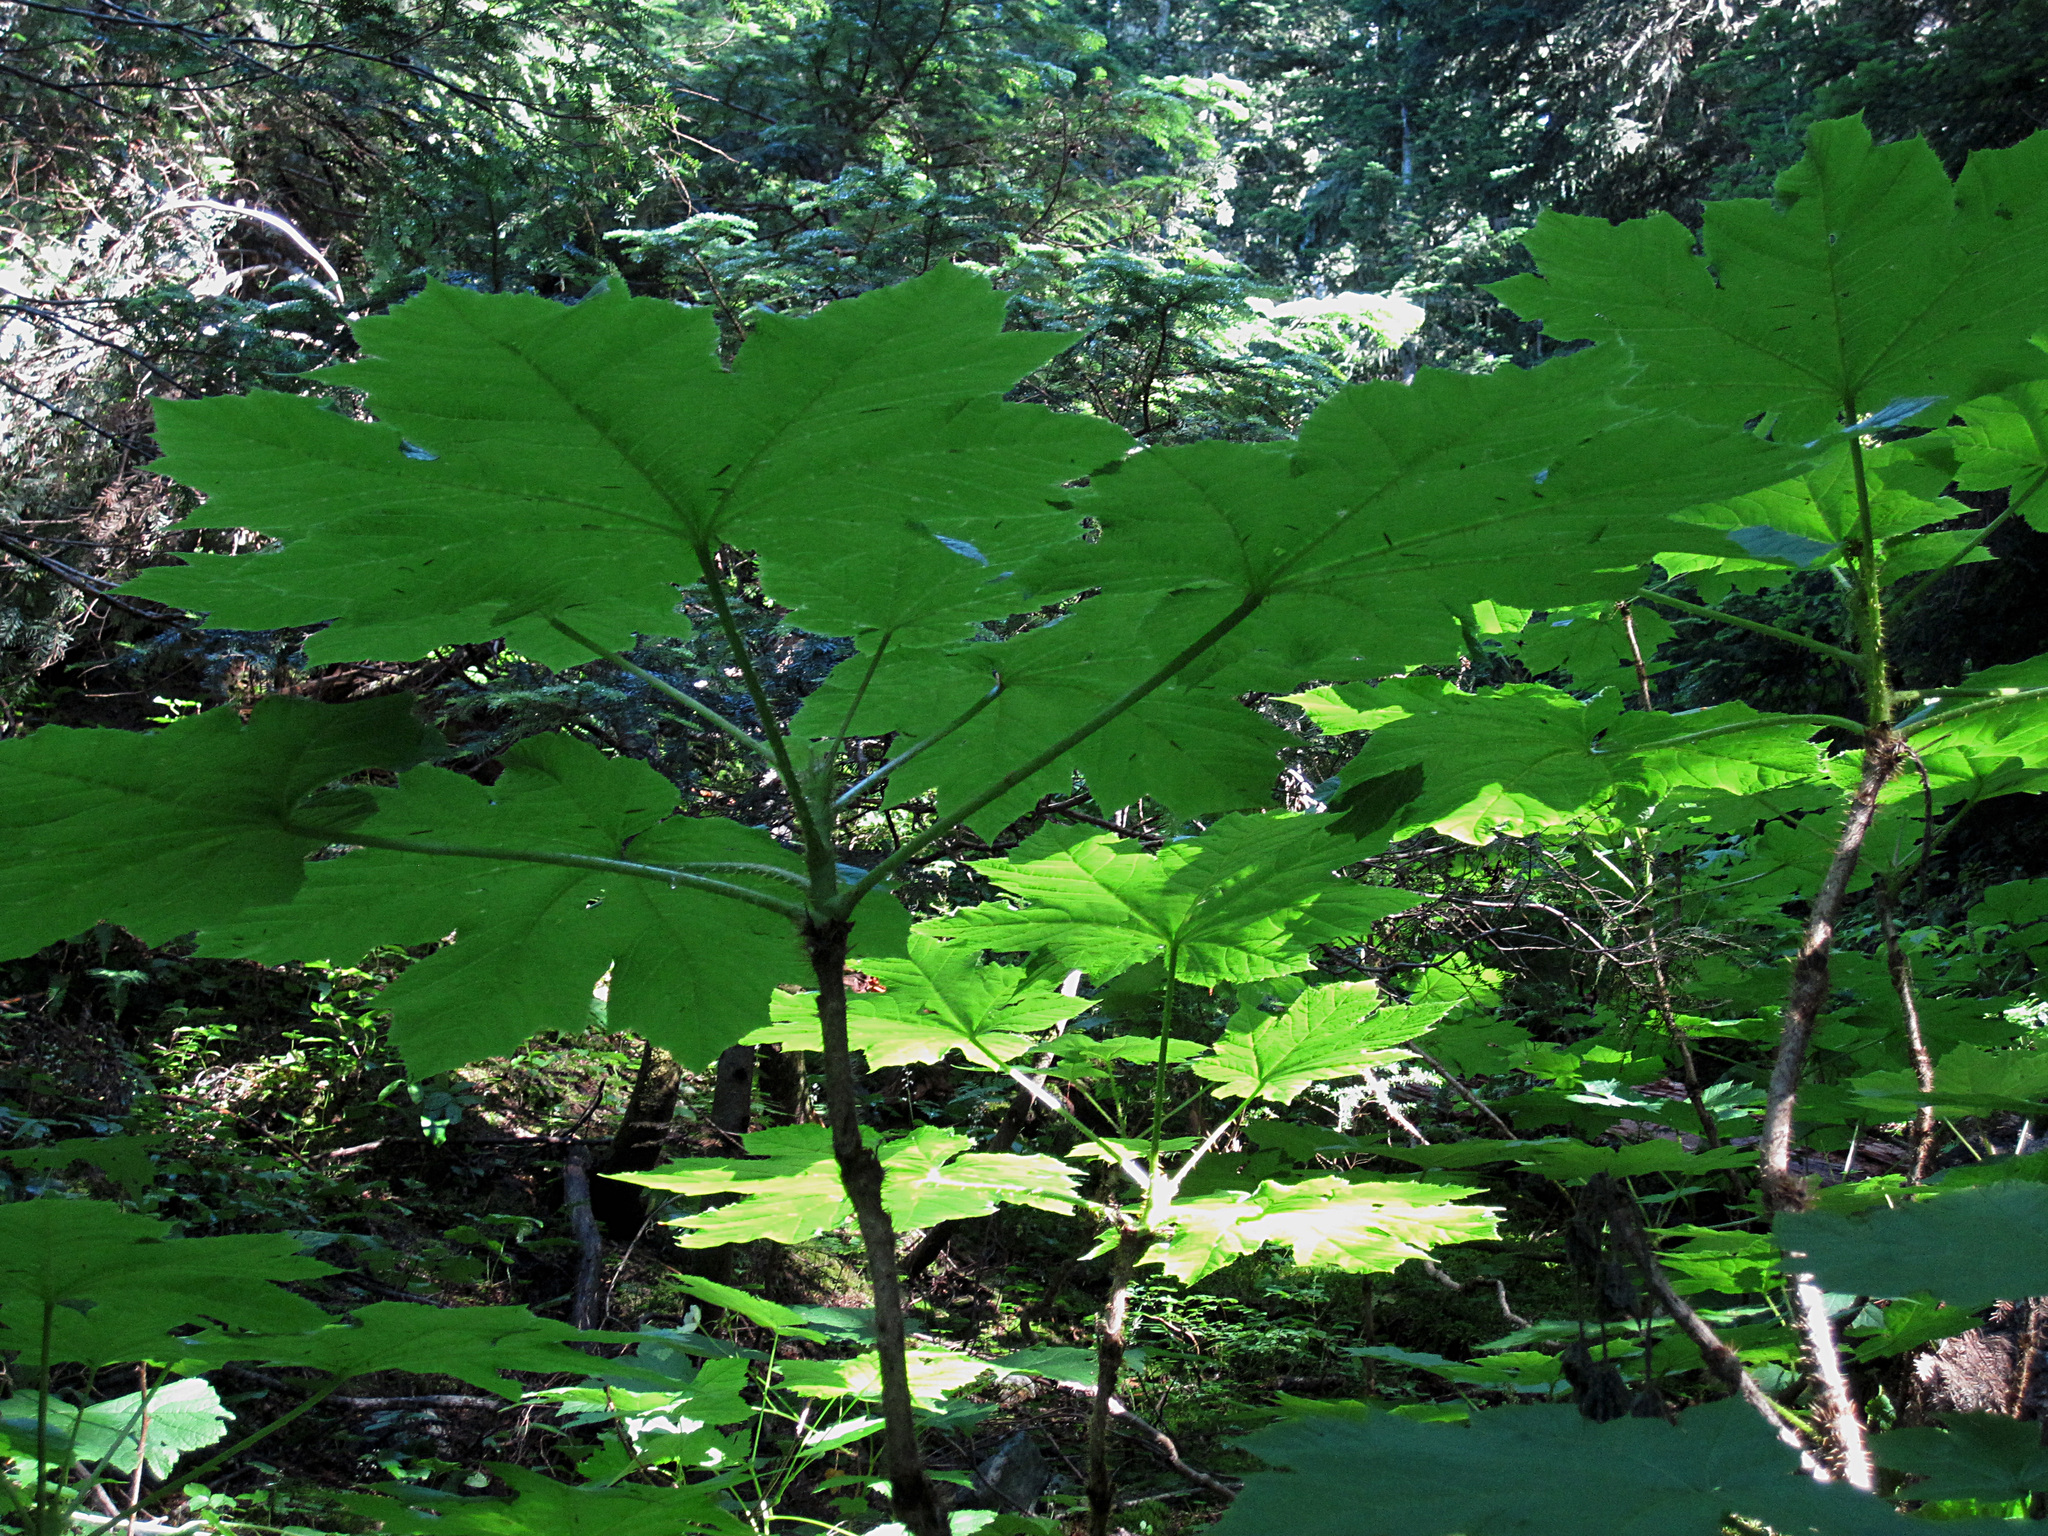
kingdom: Plantae
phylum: Tracheophyta
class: Magnoliopsida
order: Apiales
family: Araliaceae
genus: Oplopanax
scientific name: Oplopanax horridus
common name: Devil's walking-stick
